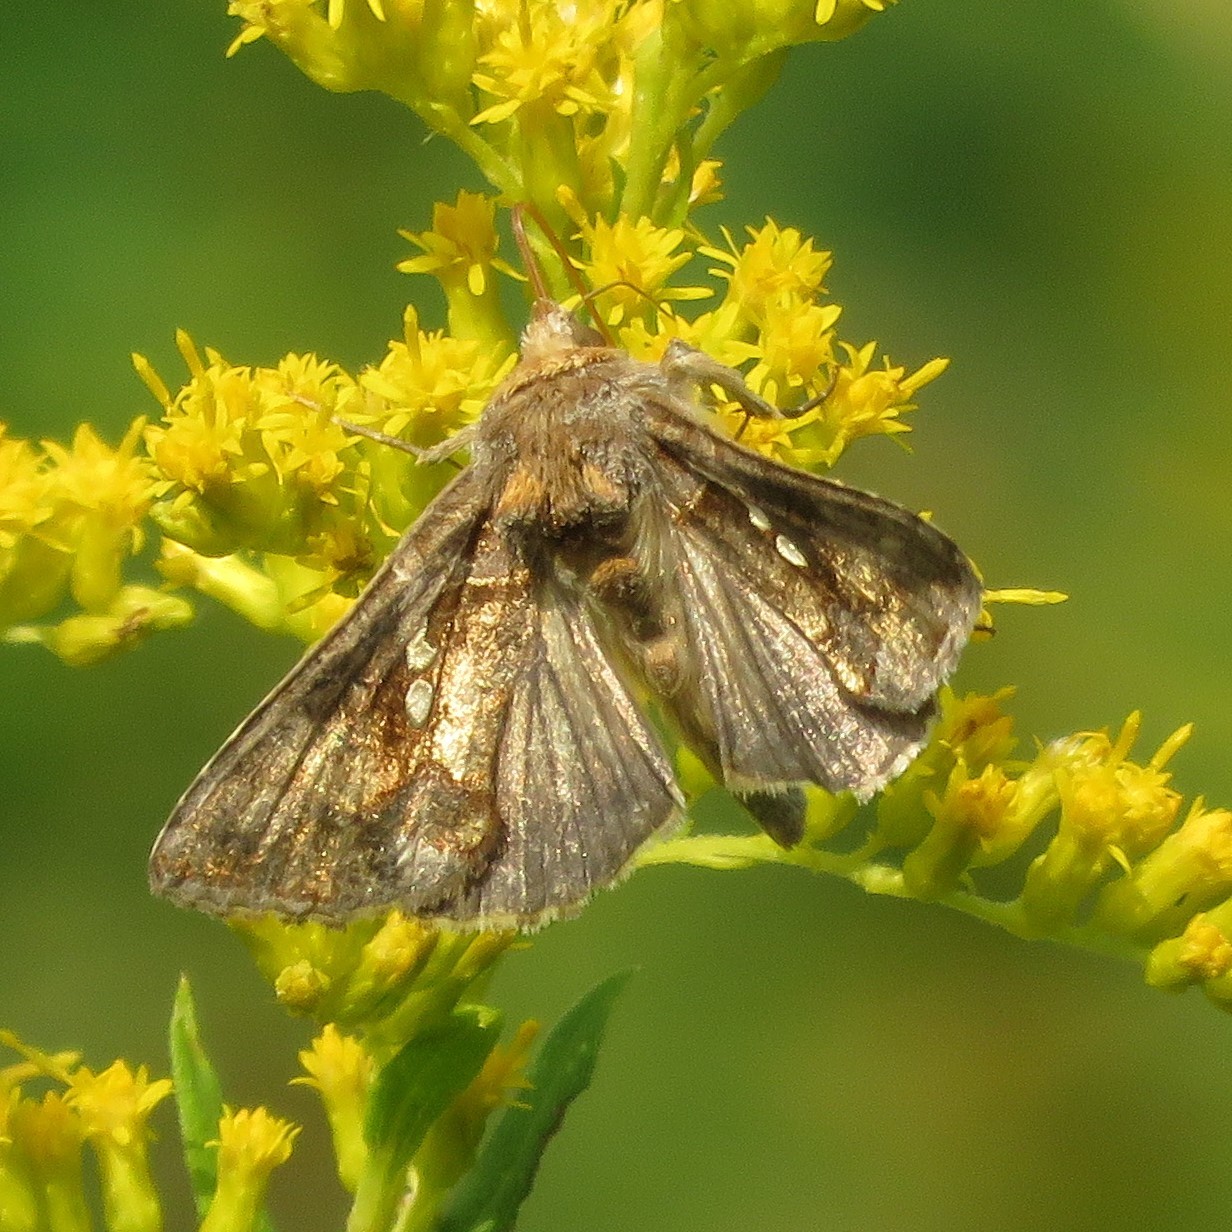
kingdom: Animalia
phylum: Arthropoda
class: Insecta
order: Lepidoptera
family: Noctuidae
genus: Chrysodeixis
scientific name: Chrysodeixis chalcites
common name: Golden twin-spot
